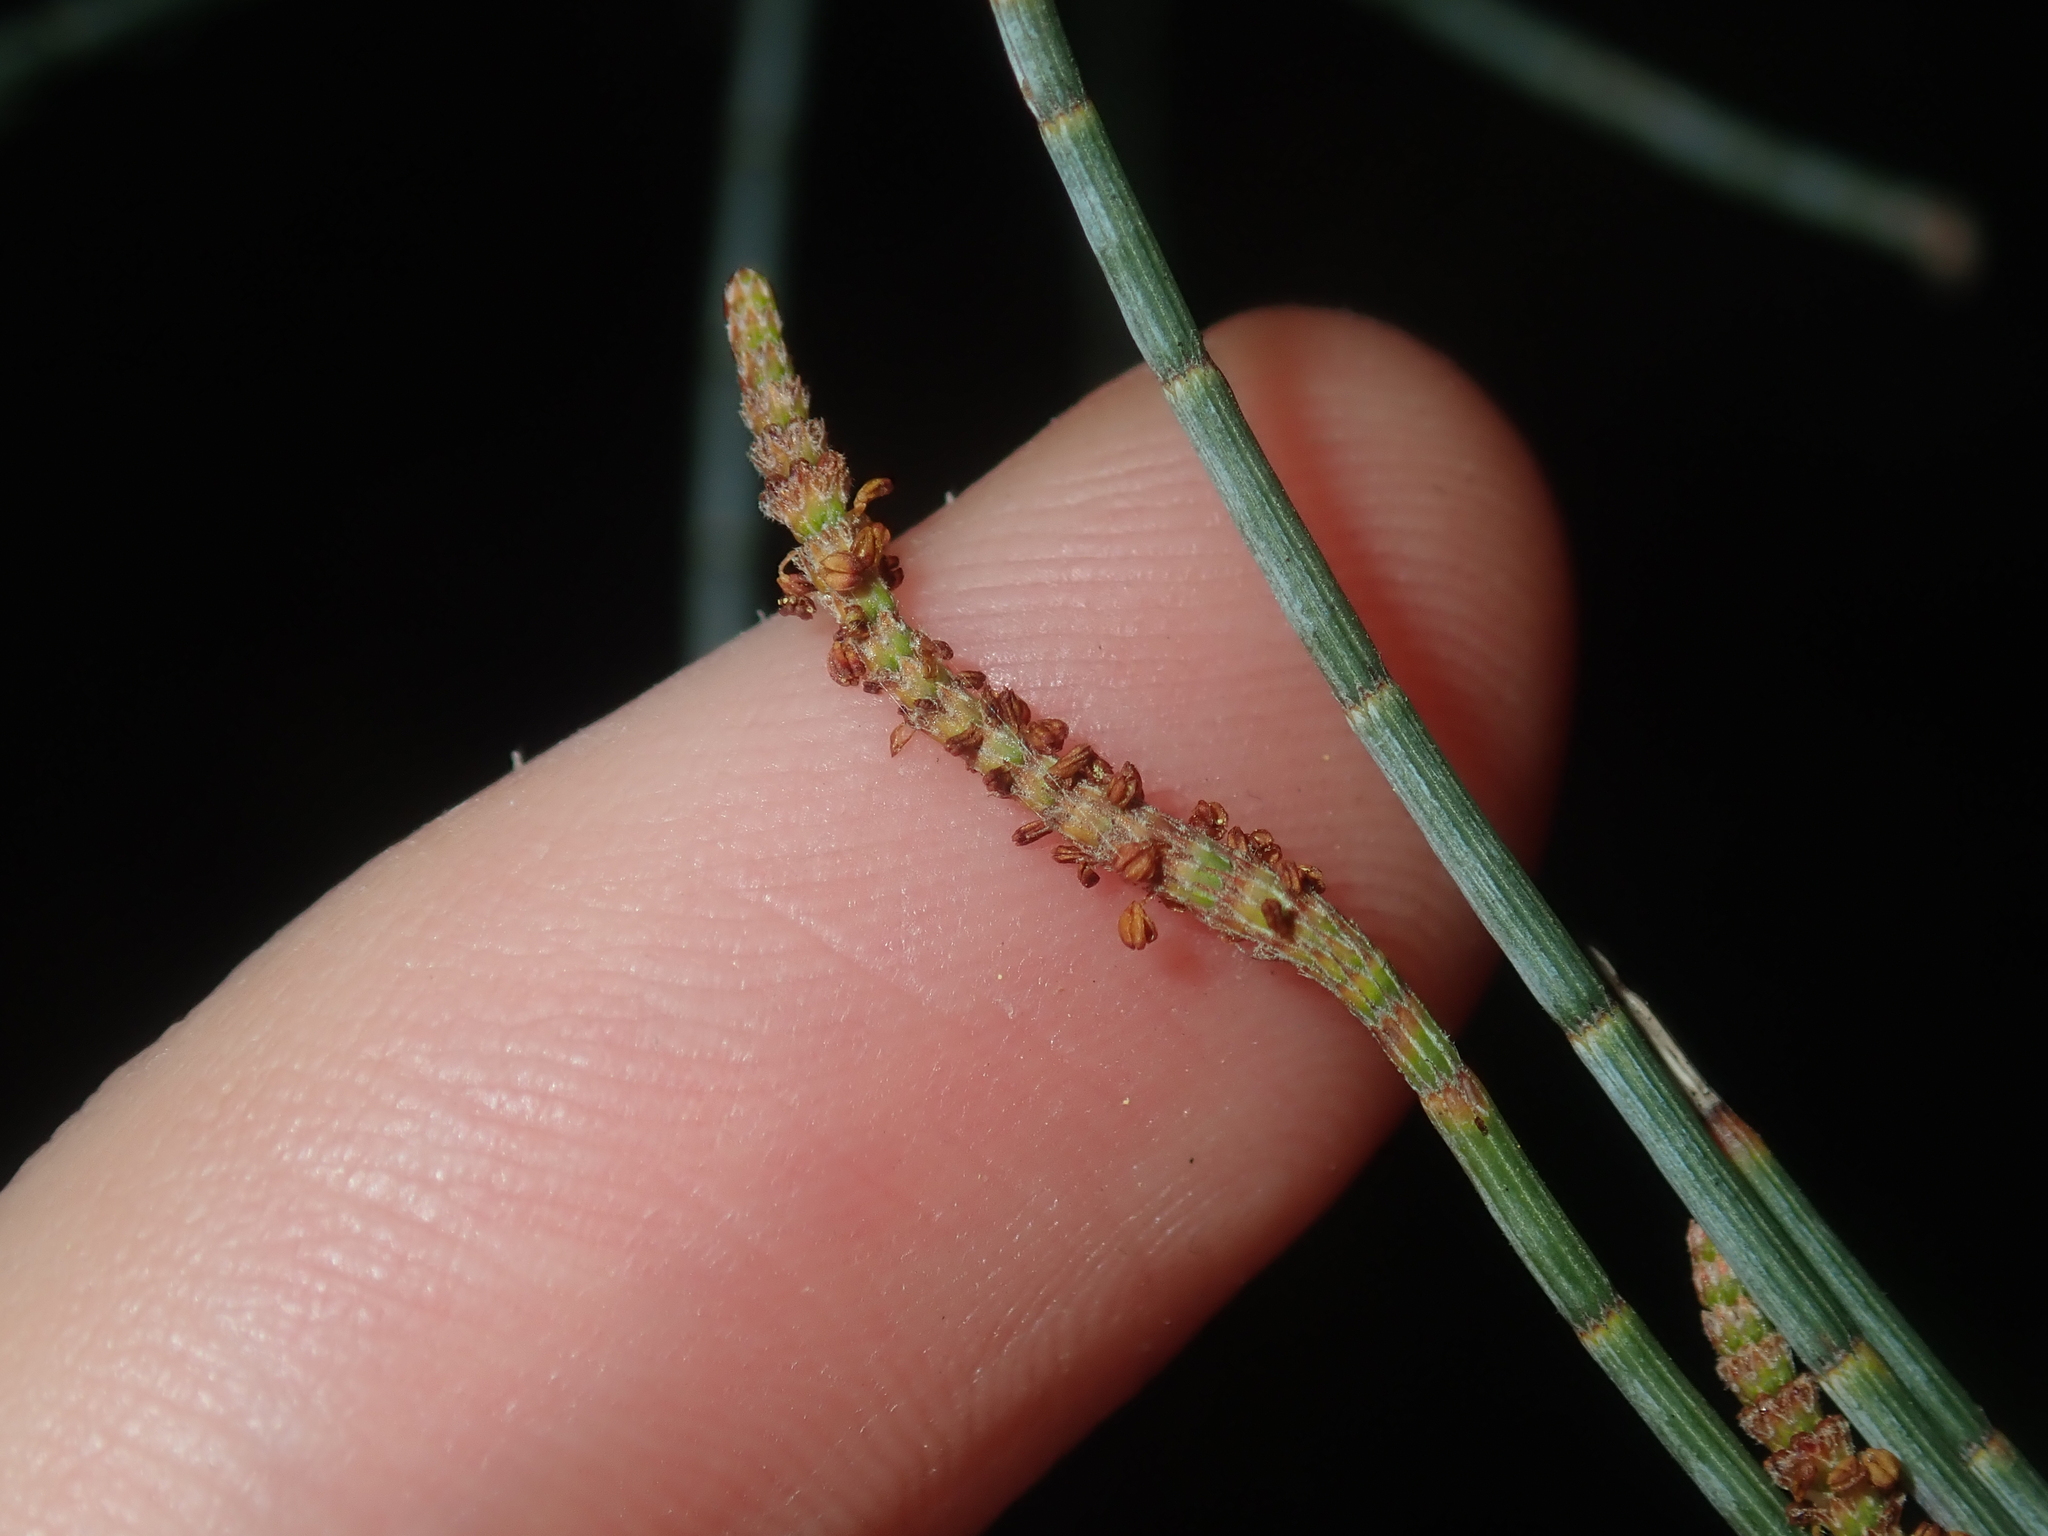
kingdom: Plantae
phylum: Tracheophyta
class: Magnoliopsida
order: Fagales
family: Casuarinaceae
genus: Allocasuarina
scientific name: Allocasuarina campestris
